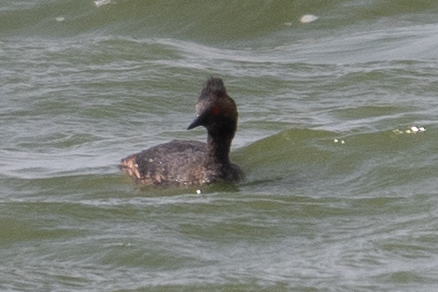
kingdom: Animalia
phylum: Chordata
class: Aves
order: Podicipediformes
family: Podicipedidae
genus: Podiceps
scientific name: Podiceps nigricollis
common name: Black-necked grebe
